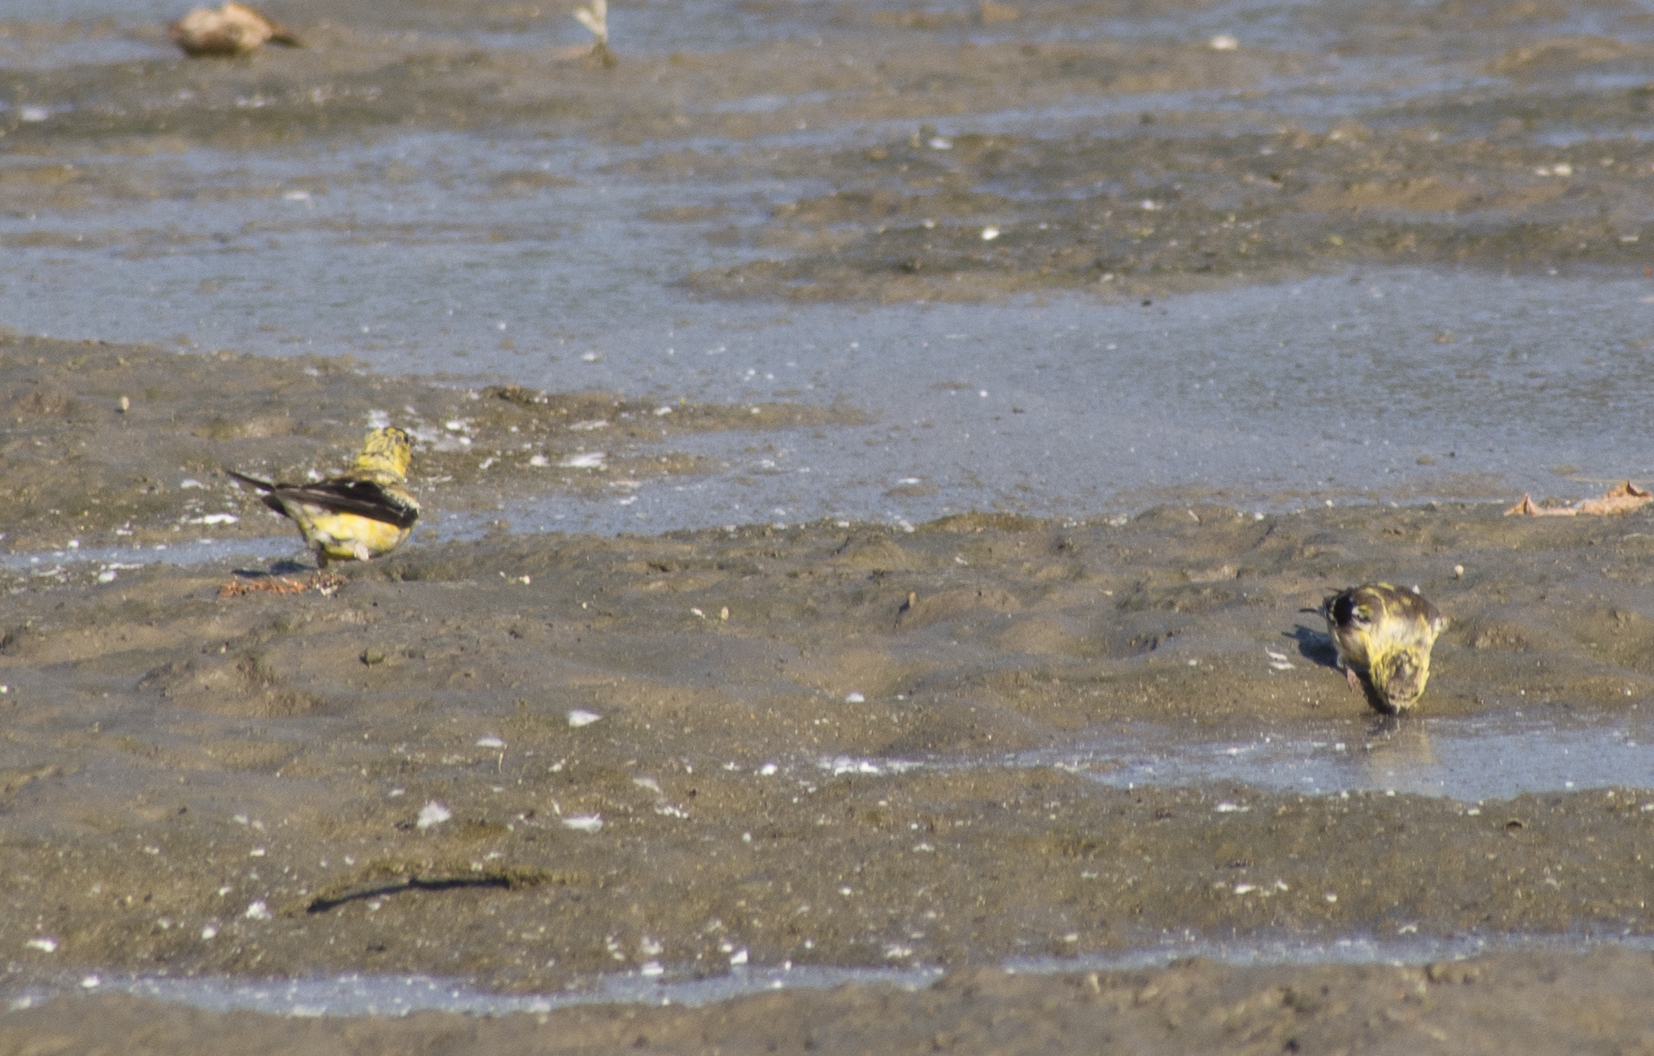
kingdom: Animalia
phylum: Chordata
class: Aves
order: Passeriformes
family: Fringillidae
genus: Spinus
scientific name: Spinus tristis
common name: American goldfinch
